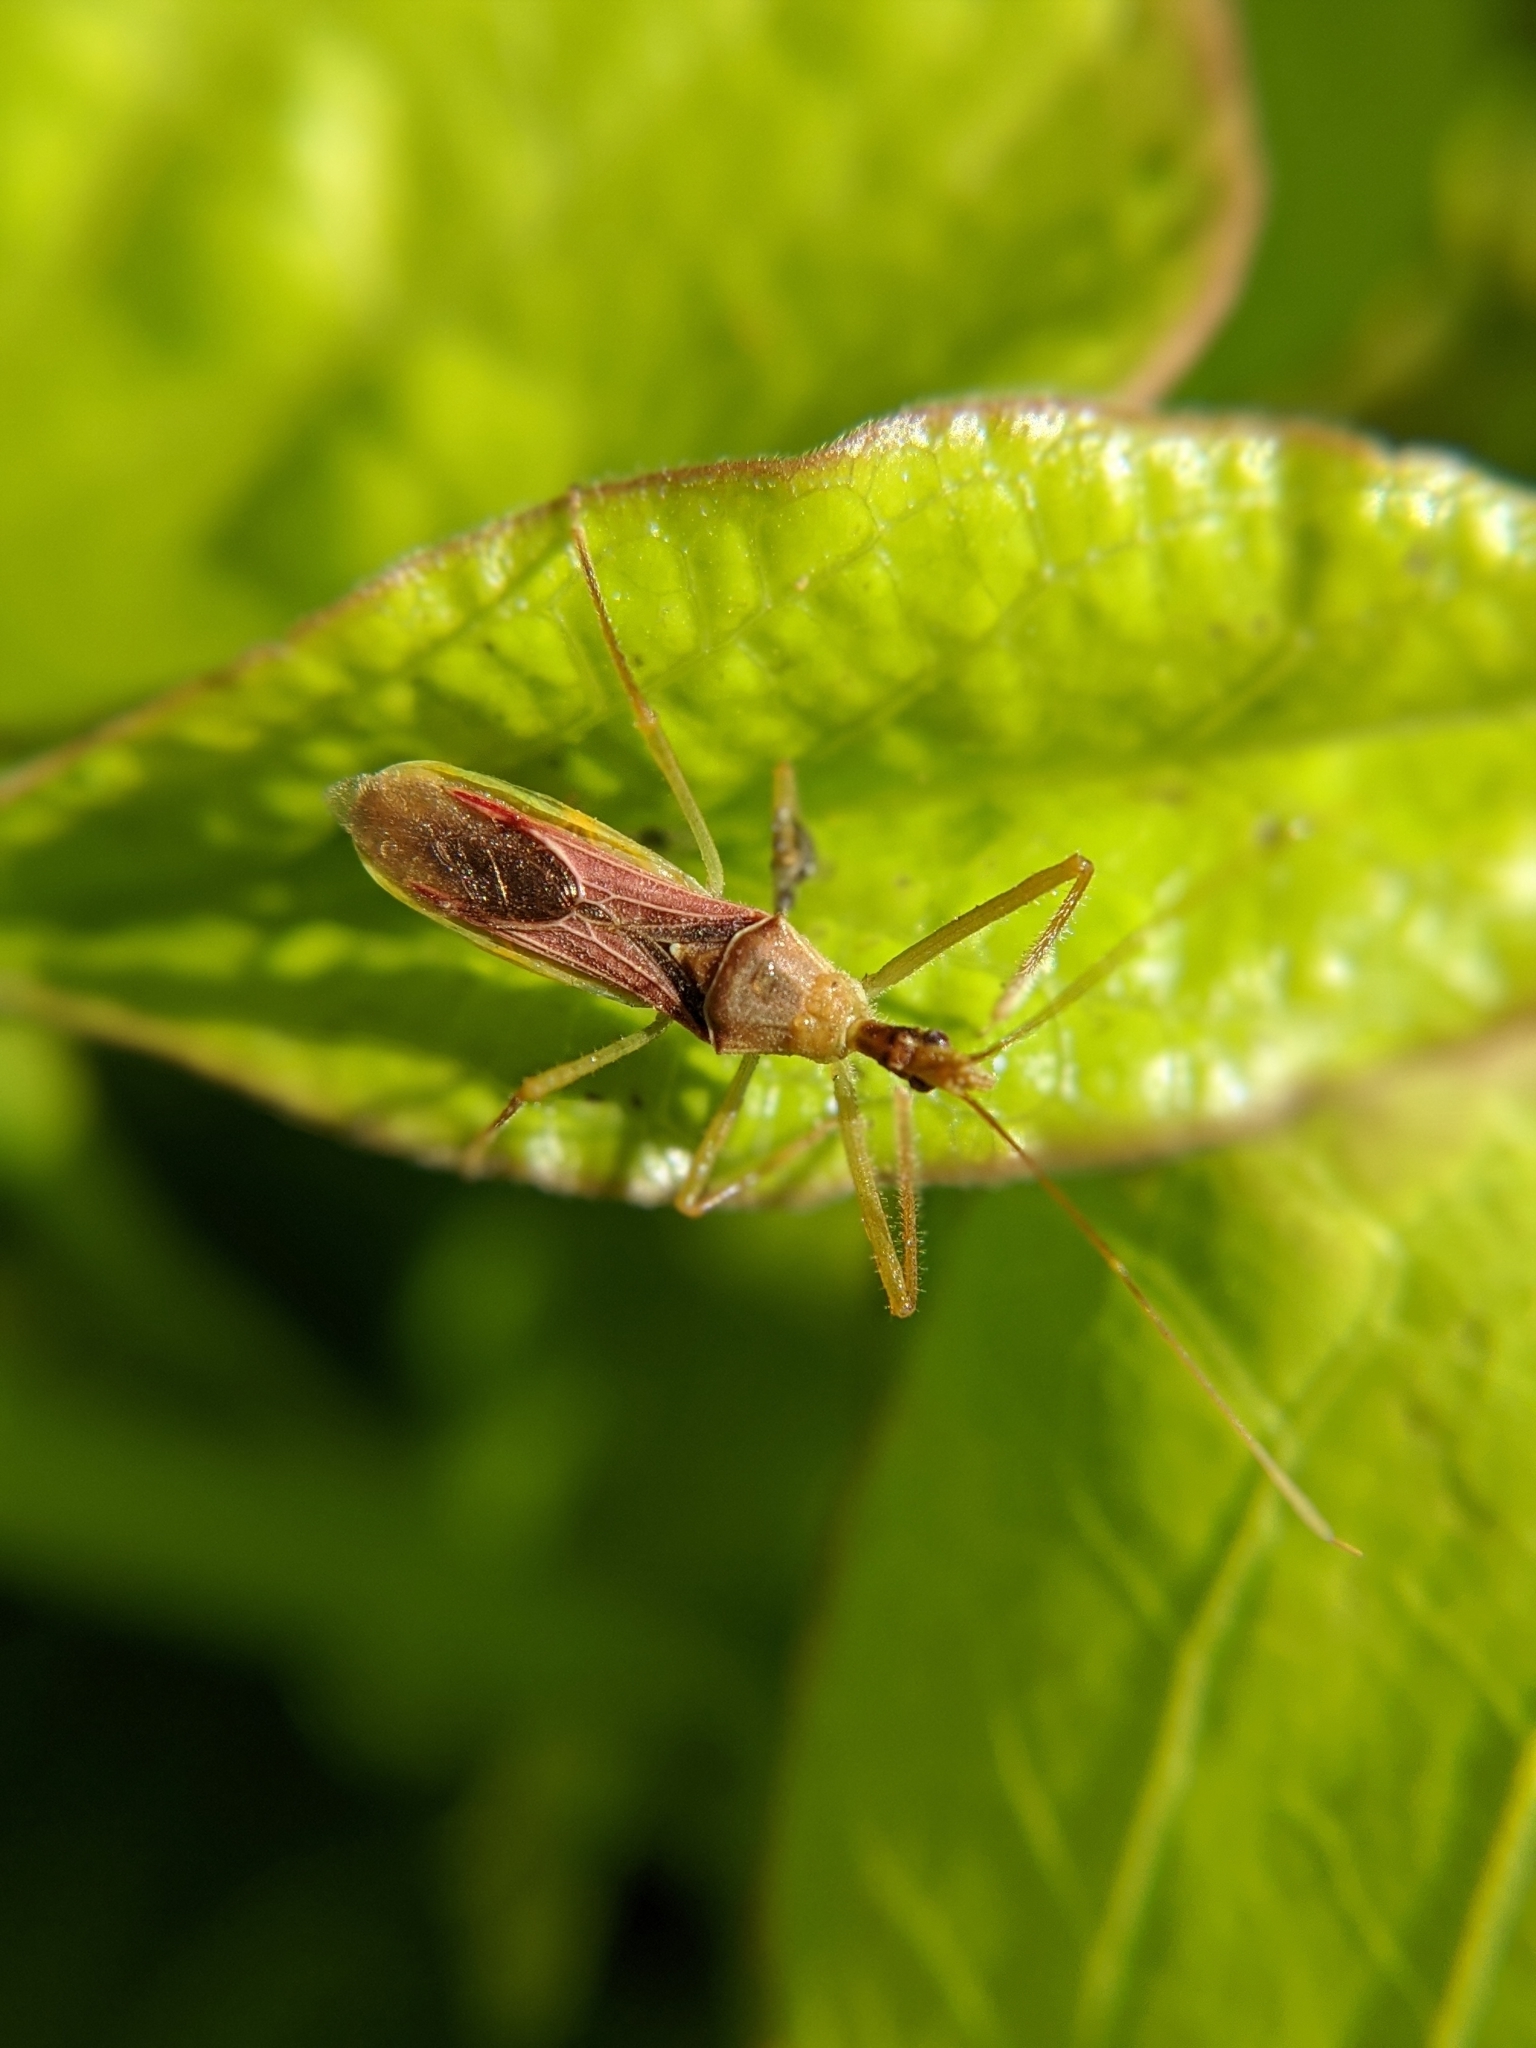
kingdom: Animalia
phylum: Arthropoda
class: Insecta
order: Hemiptera
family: Reduviidae
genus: Zelus
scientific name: Zelus renardii
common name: Assassin bug
